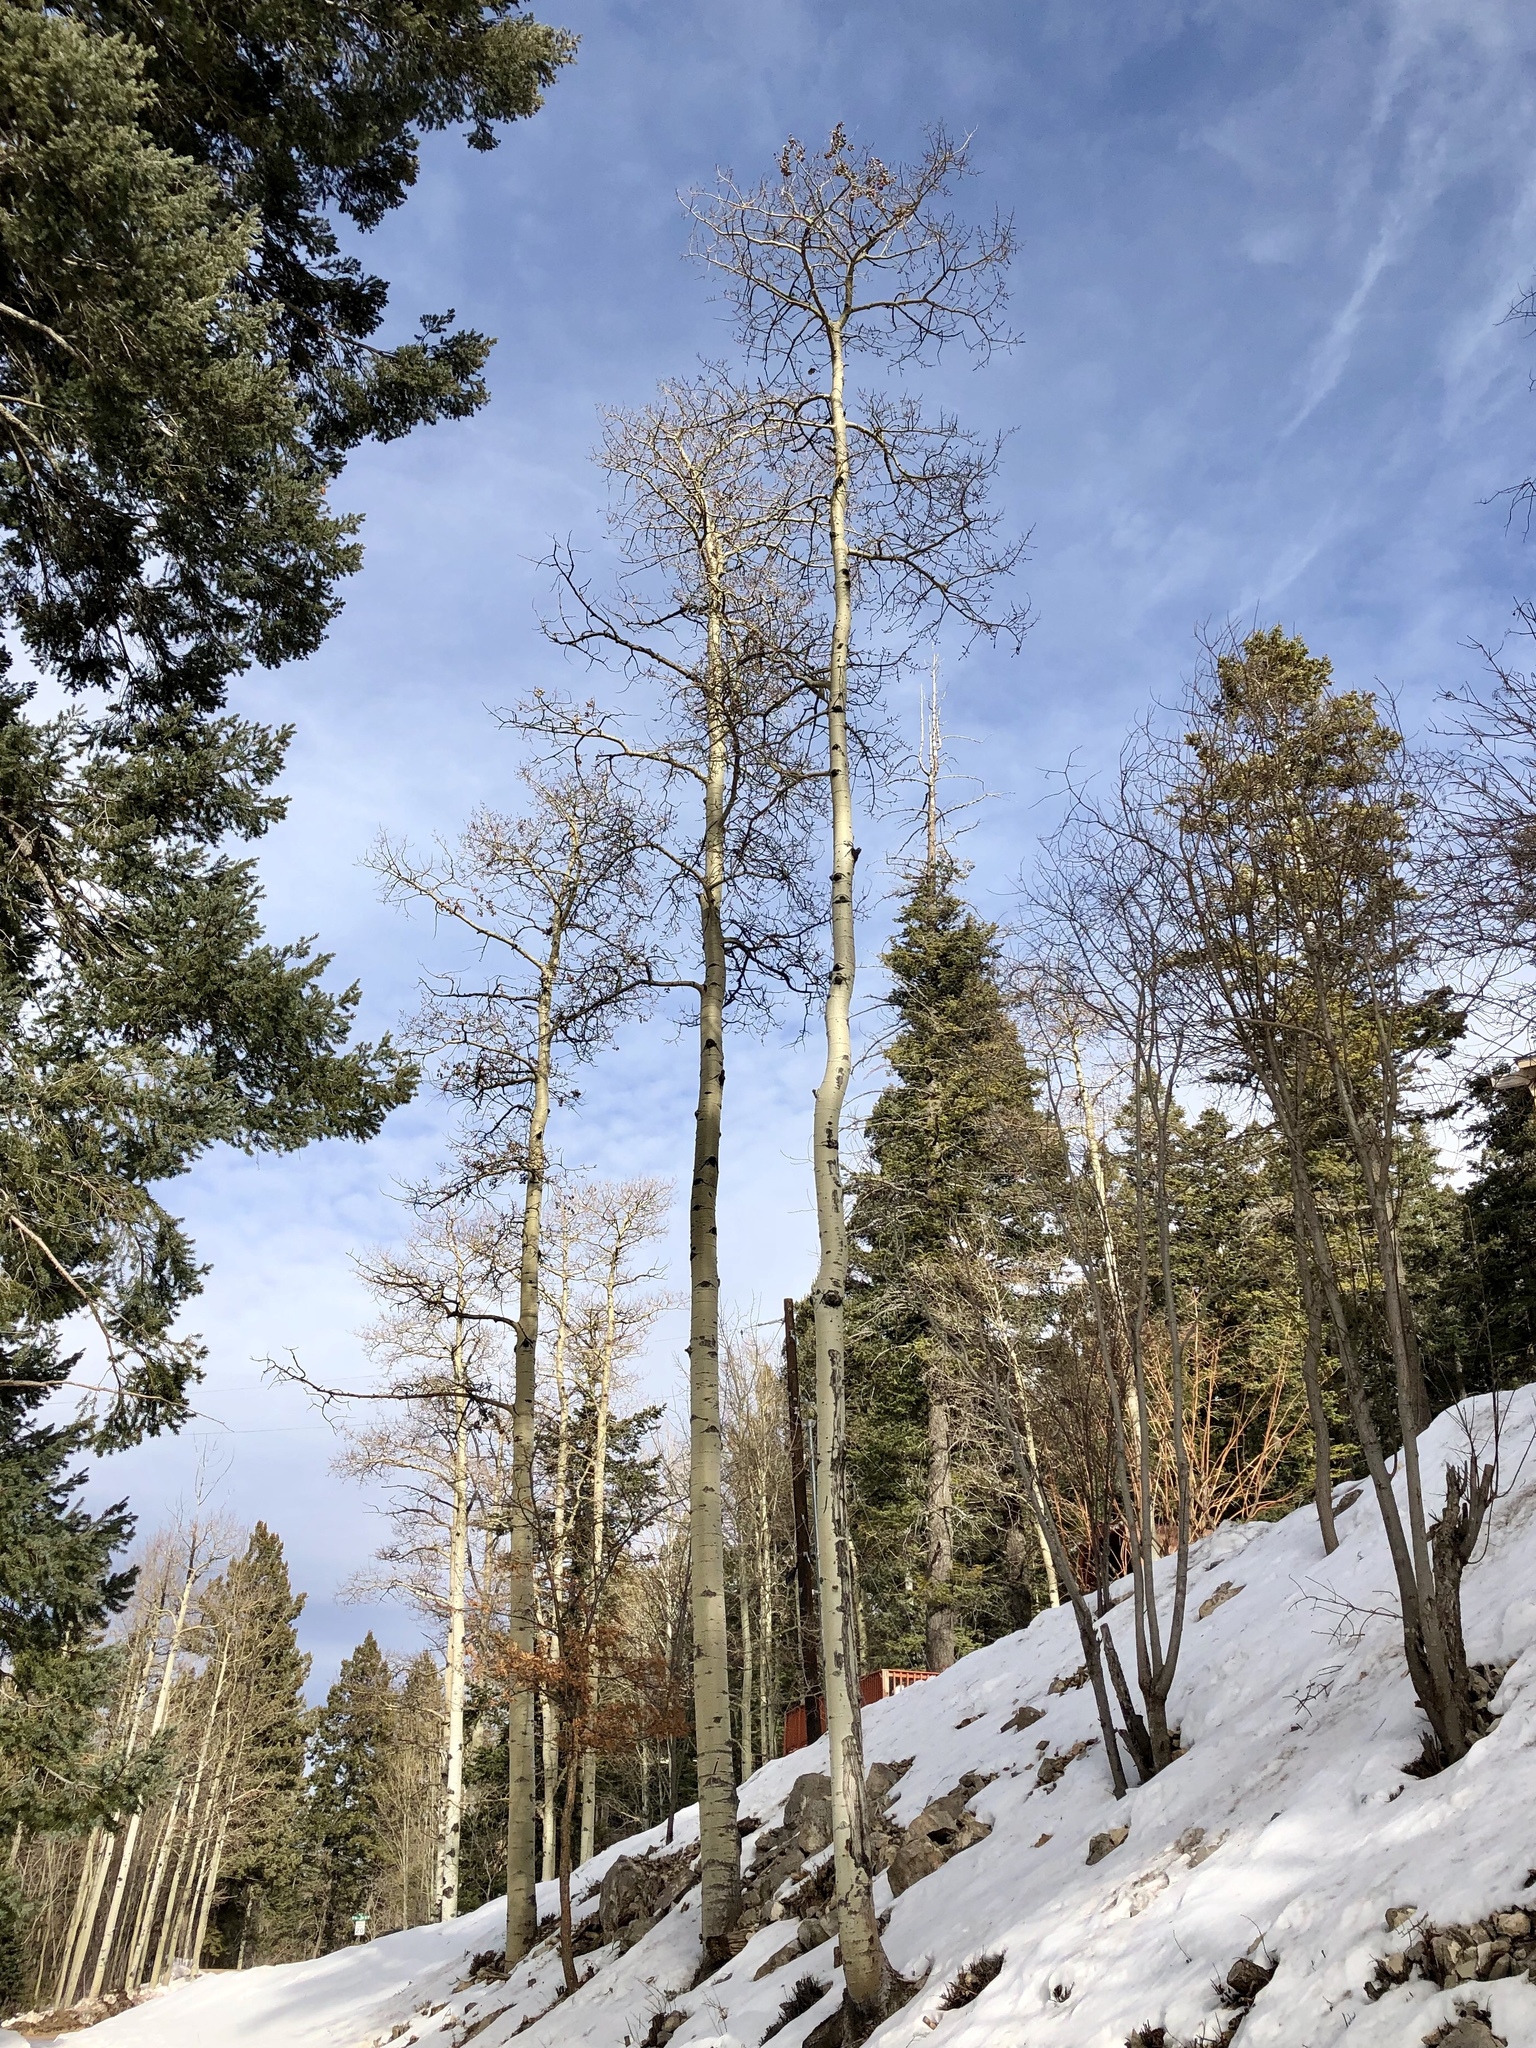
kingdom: Plantae
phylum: Tracheophyta
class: Magnoliopsida
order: Malpighiales
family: Salicaceae
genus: Populus
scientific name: Populus tremuloides
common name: Quaking aspen
